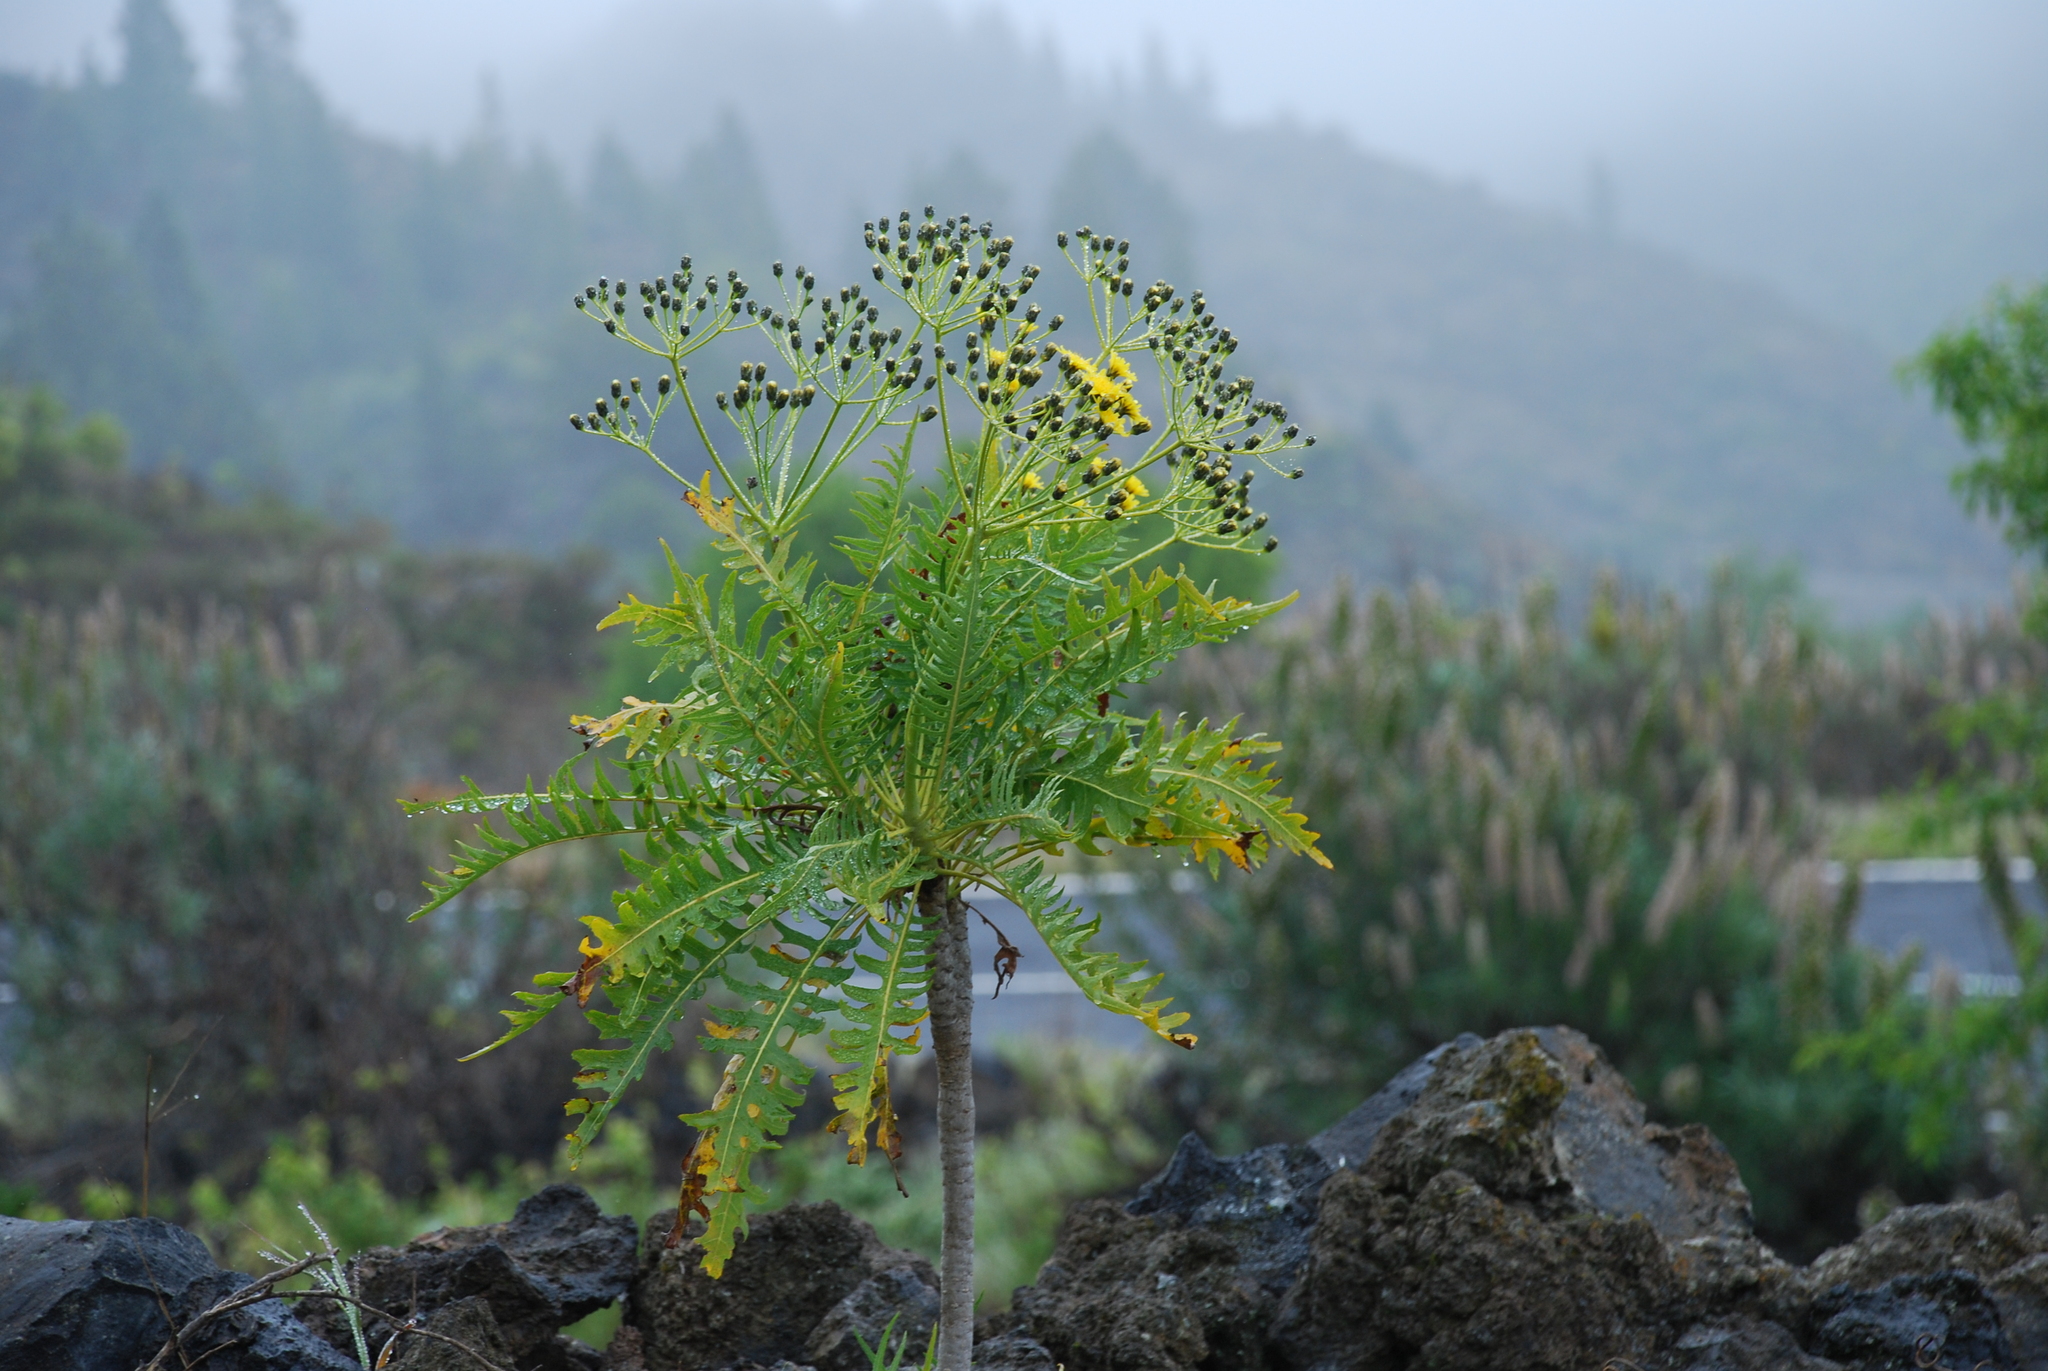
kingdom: Plantae
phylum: Tracheophyta
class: Magnoliopsida
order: Asterales
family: Asteraceae
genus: Sonchus
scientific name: Sonchus canariensis
